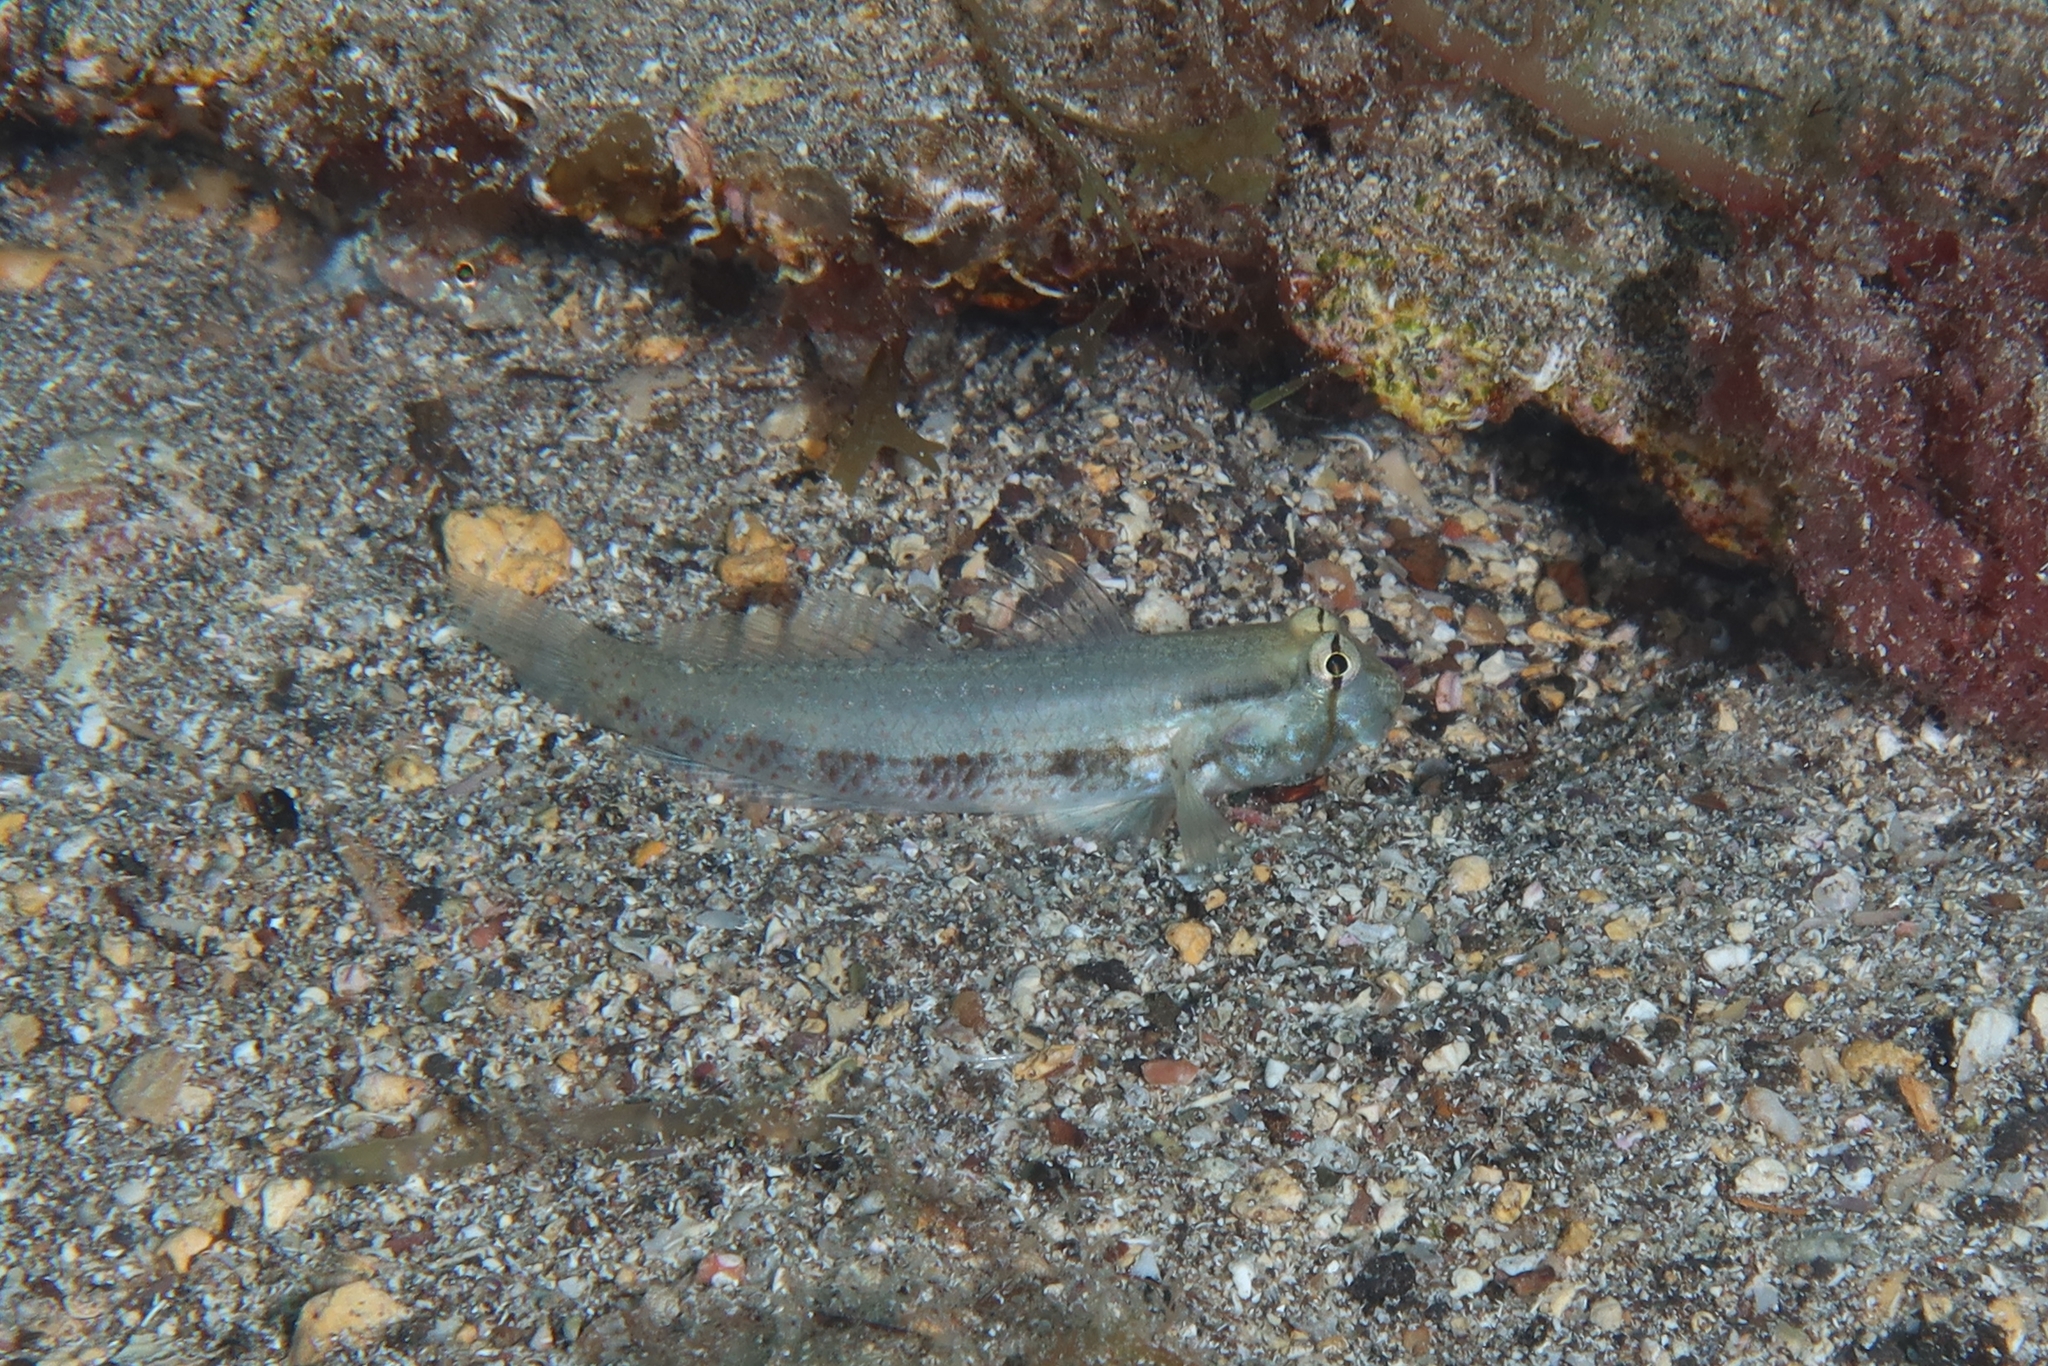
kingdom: Animalia
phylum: Chordata
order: Perciformes
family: Gobiidae
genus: Gnatholepis
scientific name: Gnatholepis thompsoni
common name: Goldspot goby
